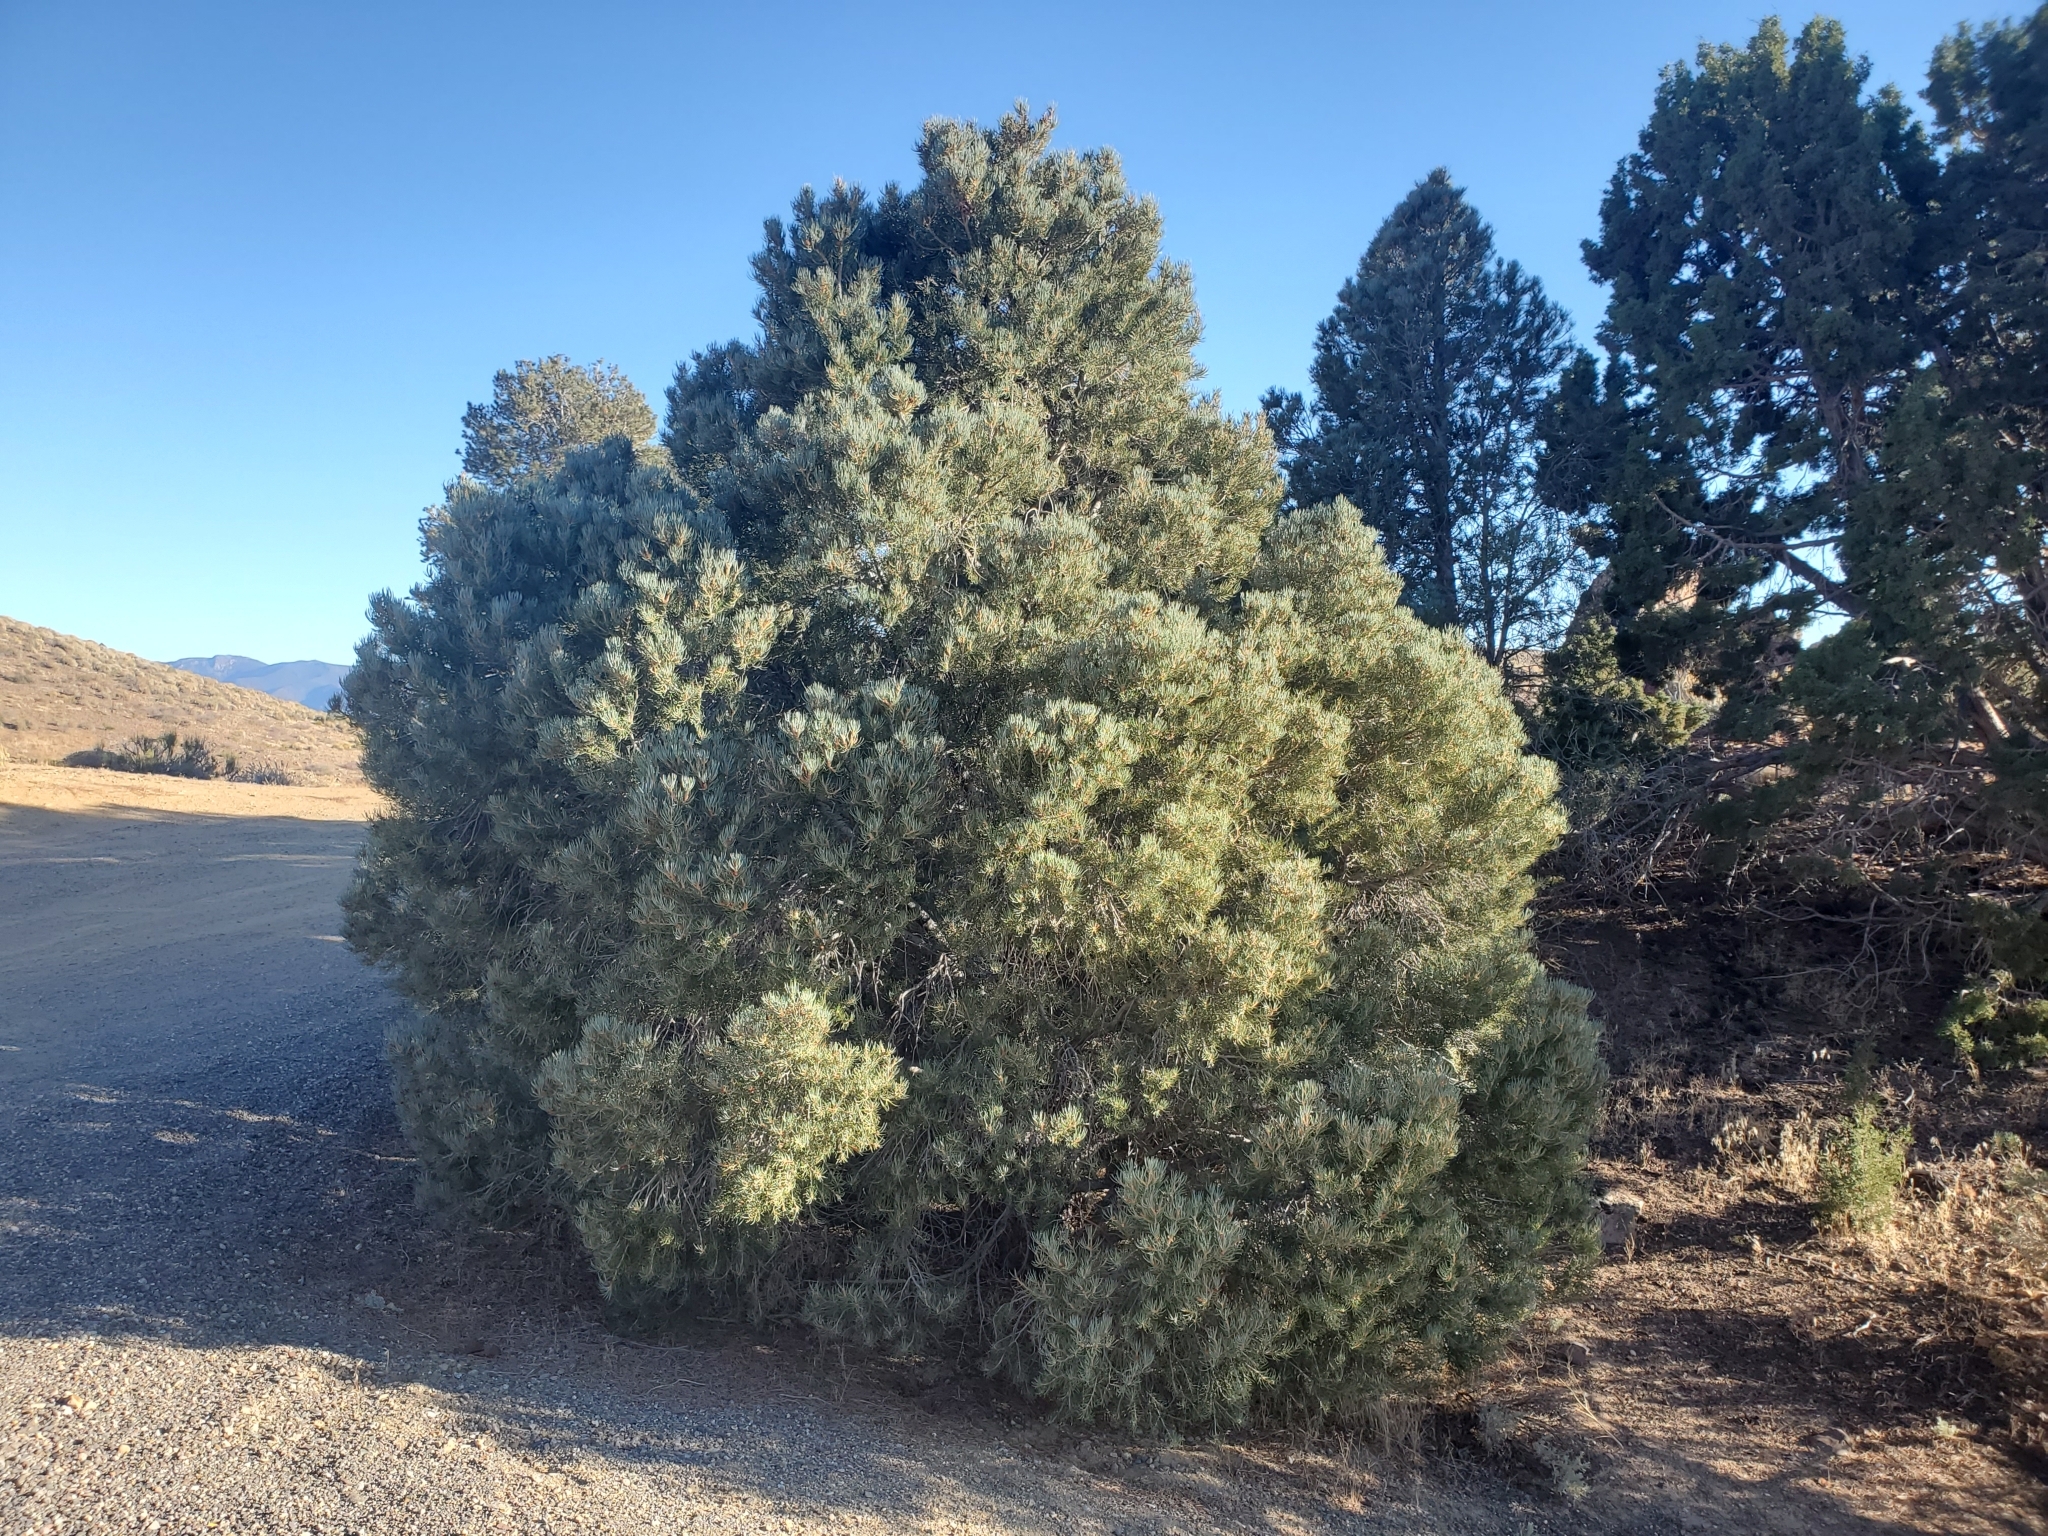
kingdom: Plantae
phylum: Tracheophyta
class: Pinopsida
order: Pinales
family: Pinaceae
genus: Pinus
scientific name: Pinus monophylla
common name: One-leaved nut pine
